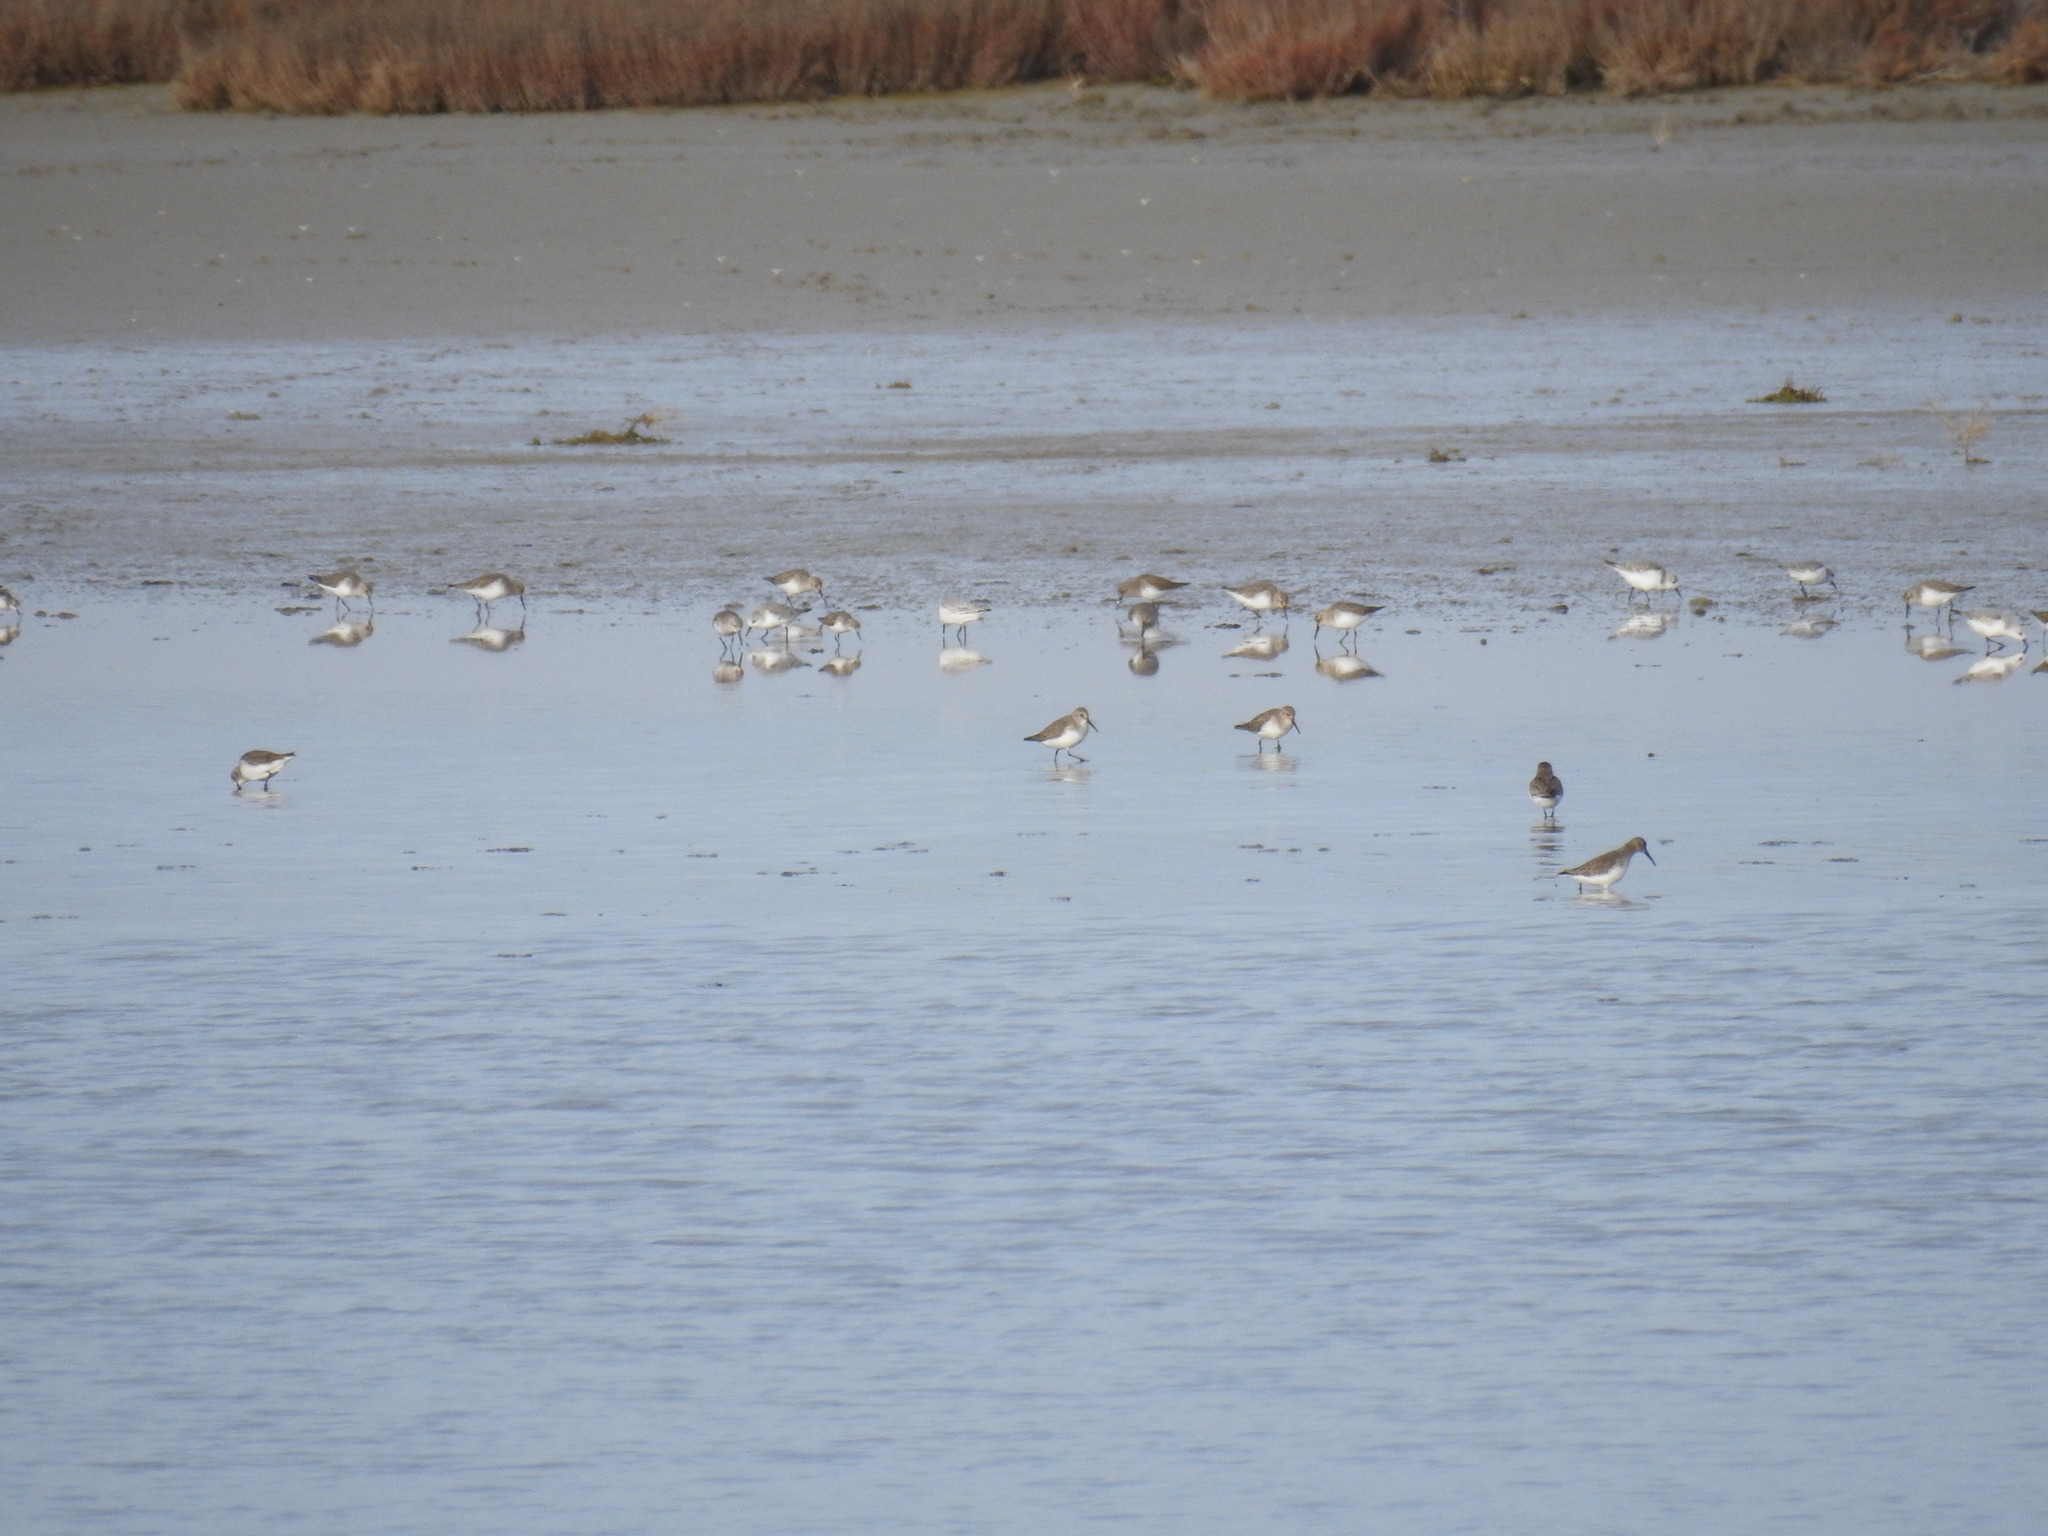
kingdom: Animalia
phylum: Chordata
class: Aves
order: Charadriiformes
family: Scolopacidae
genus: Calidris
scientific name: Calidris alpina
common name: Dunlin
